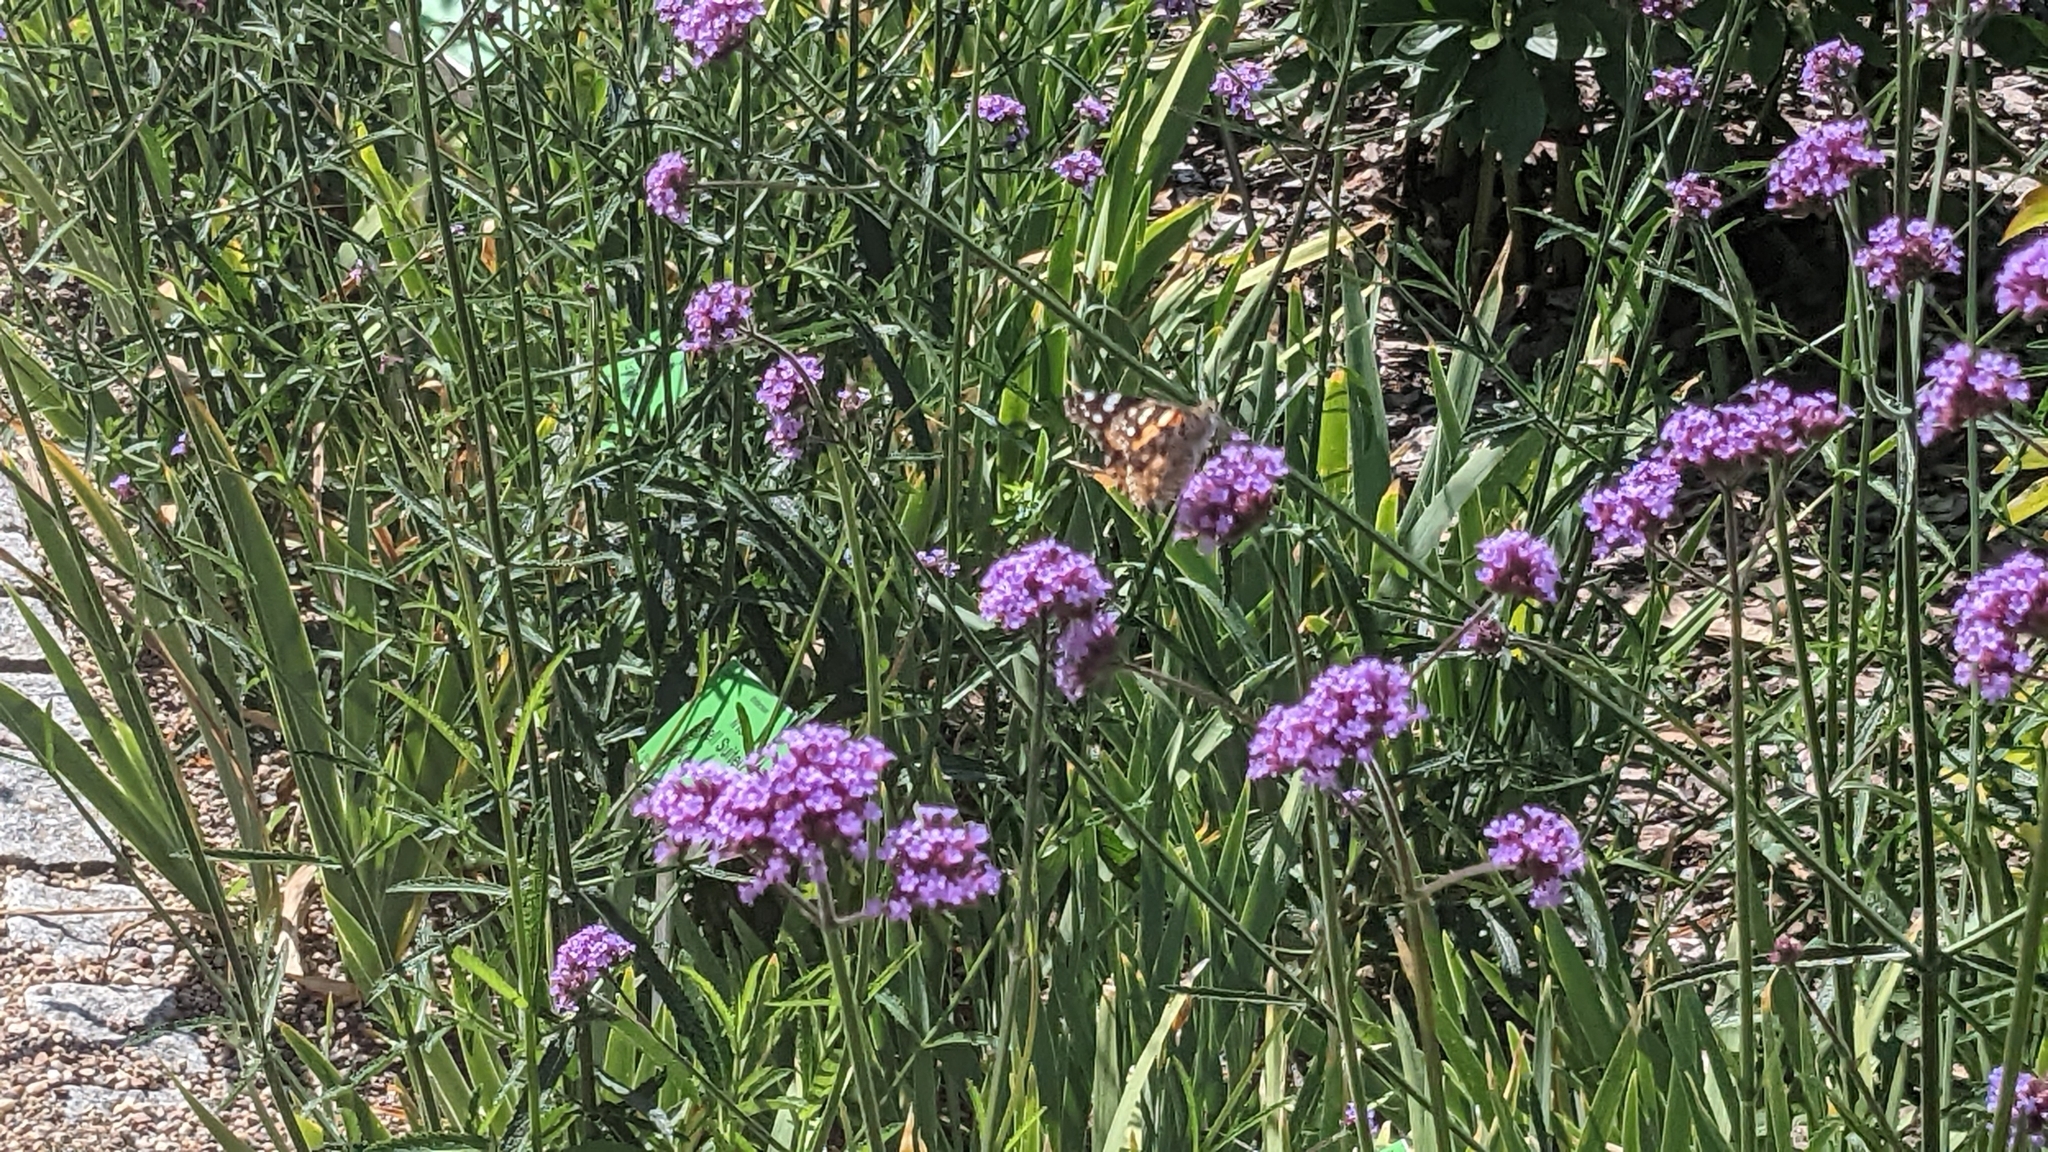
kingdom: Animalia
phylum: Arthropoda
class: Insecta
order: Lepidoptera
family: Nymphalidae
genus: Vanessa
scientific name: Vanessa cardui
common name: Painted lady
